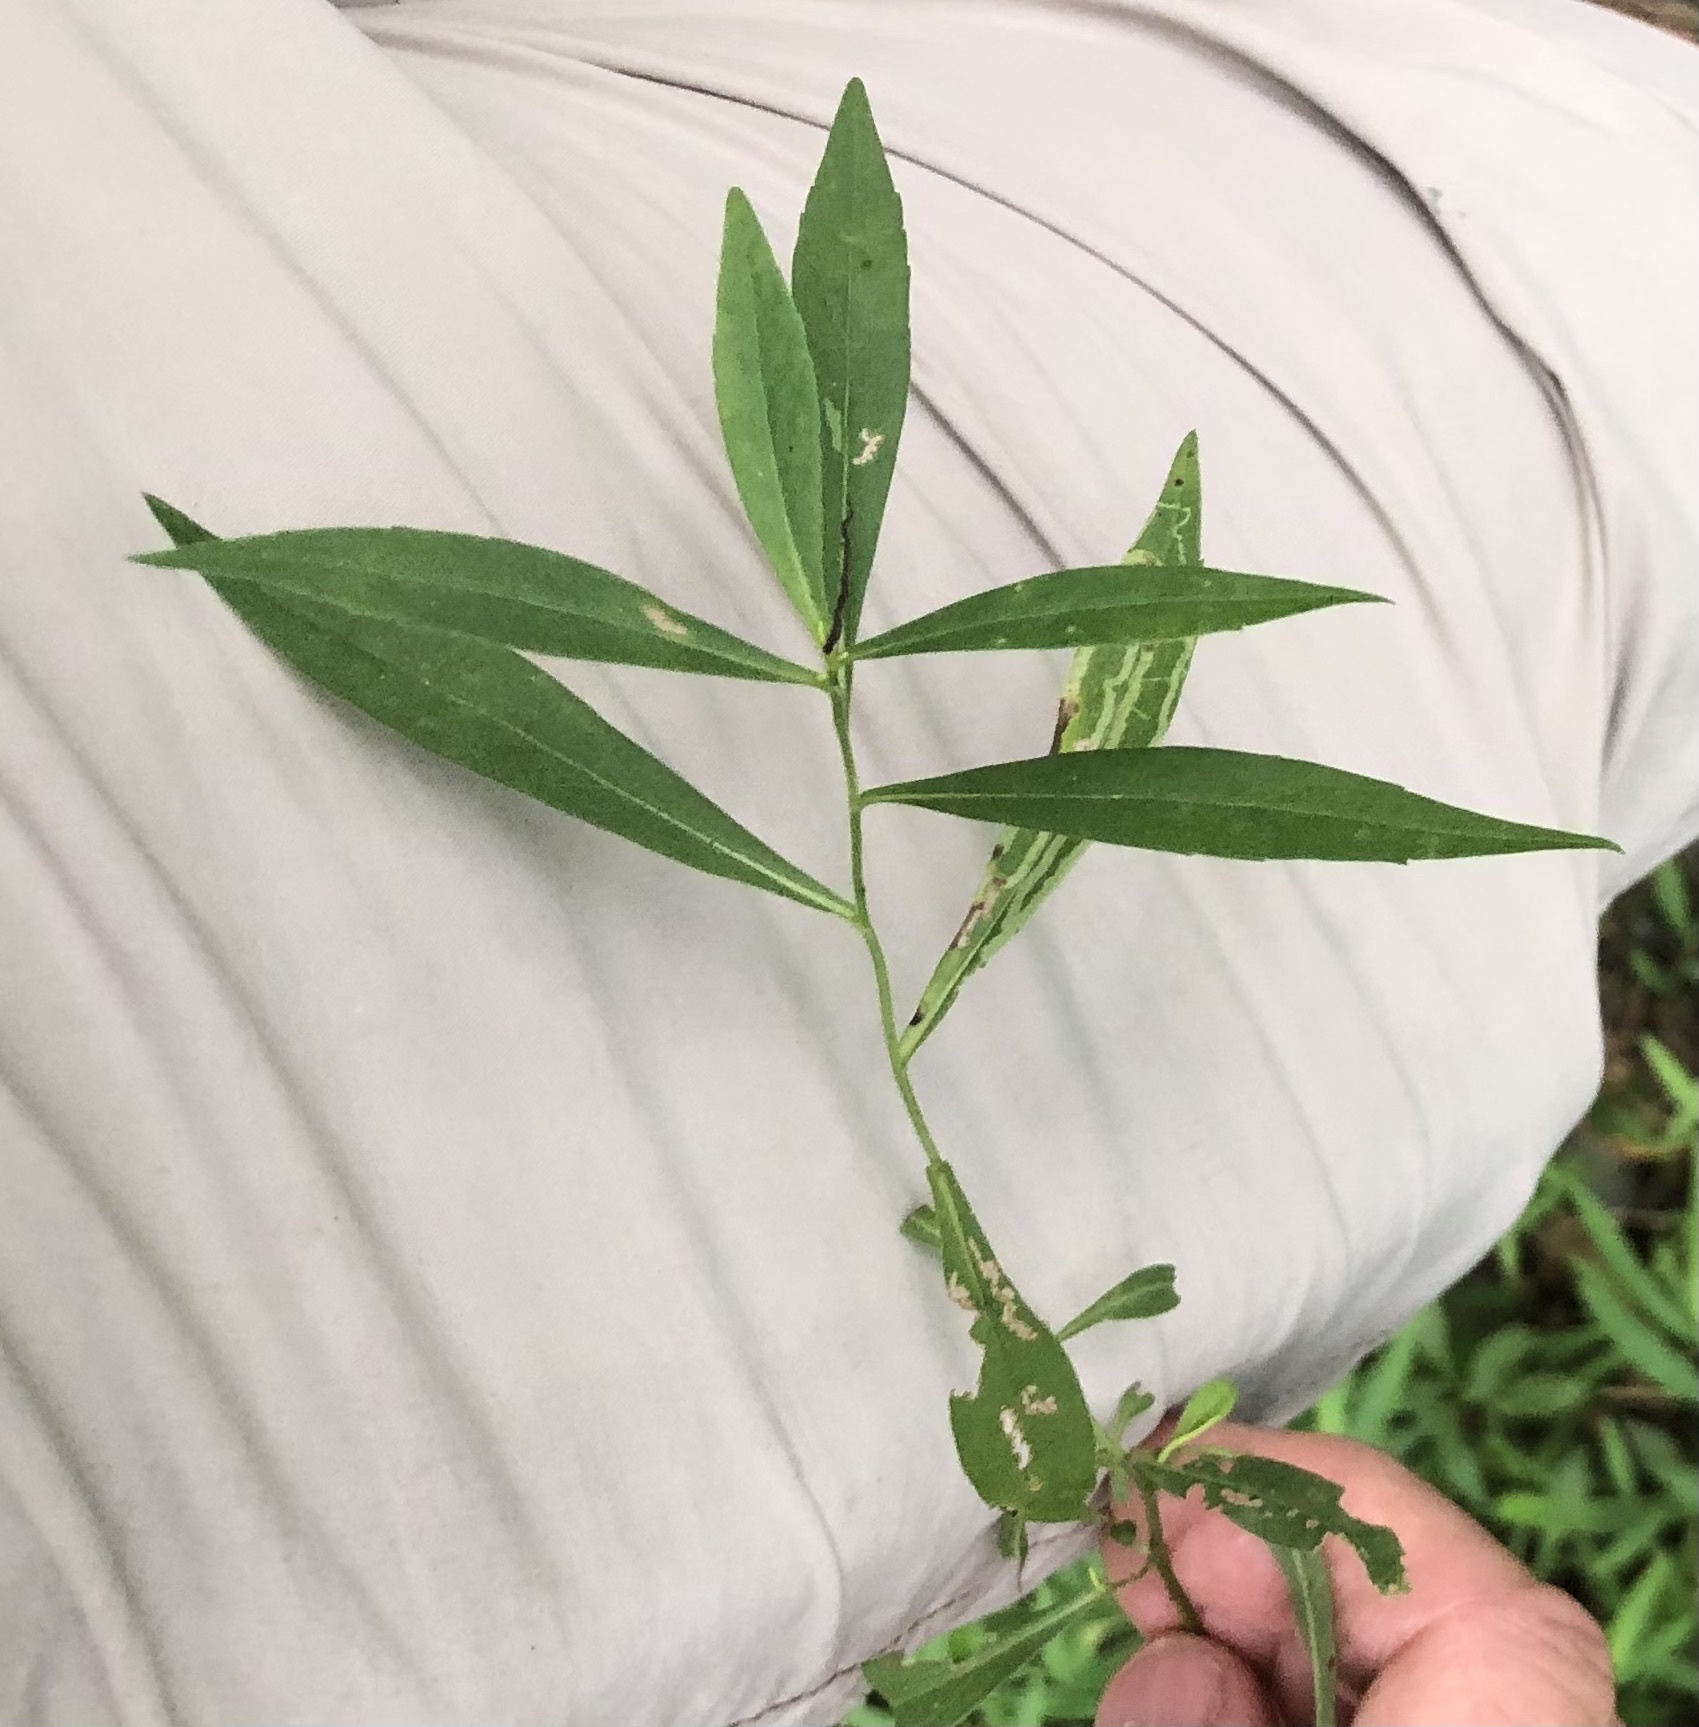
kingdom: Animalia
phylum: Arthropoda
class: Insecta
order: Diptera
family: Agromyzidae
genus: Ophiomyia
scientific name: Ophiomyia parda
